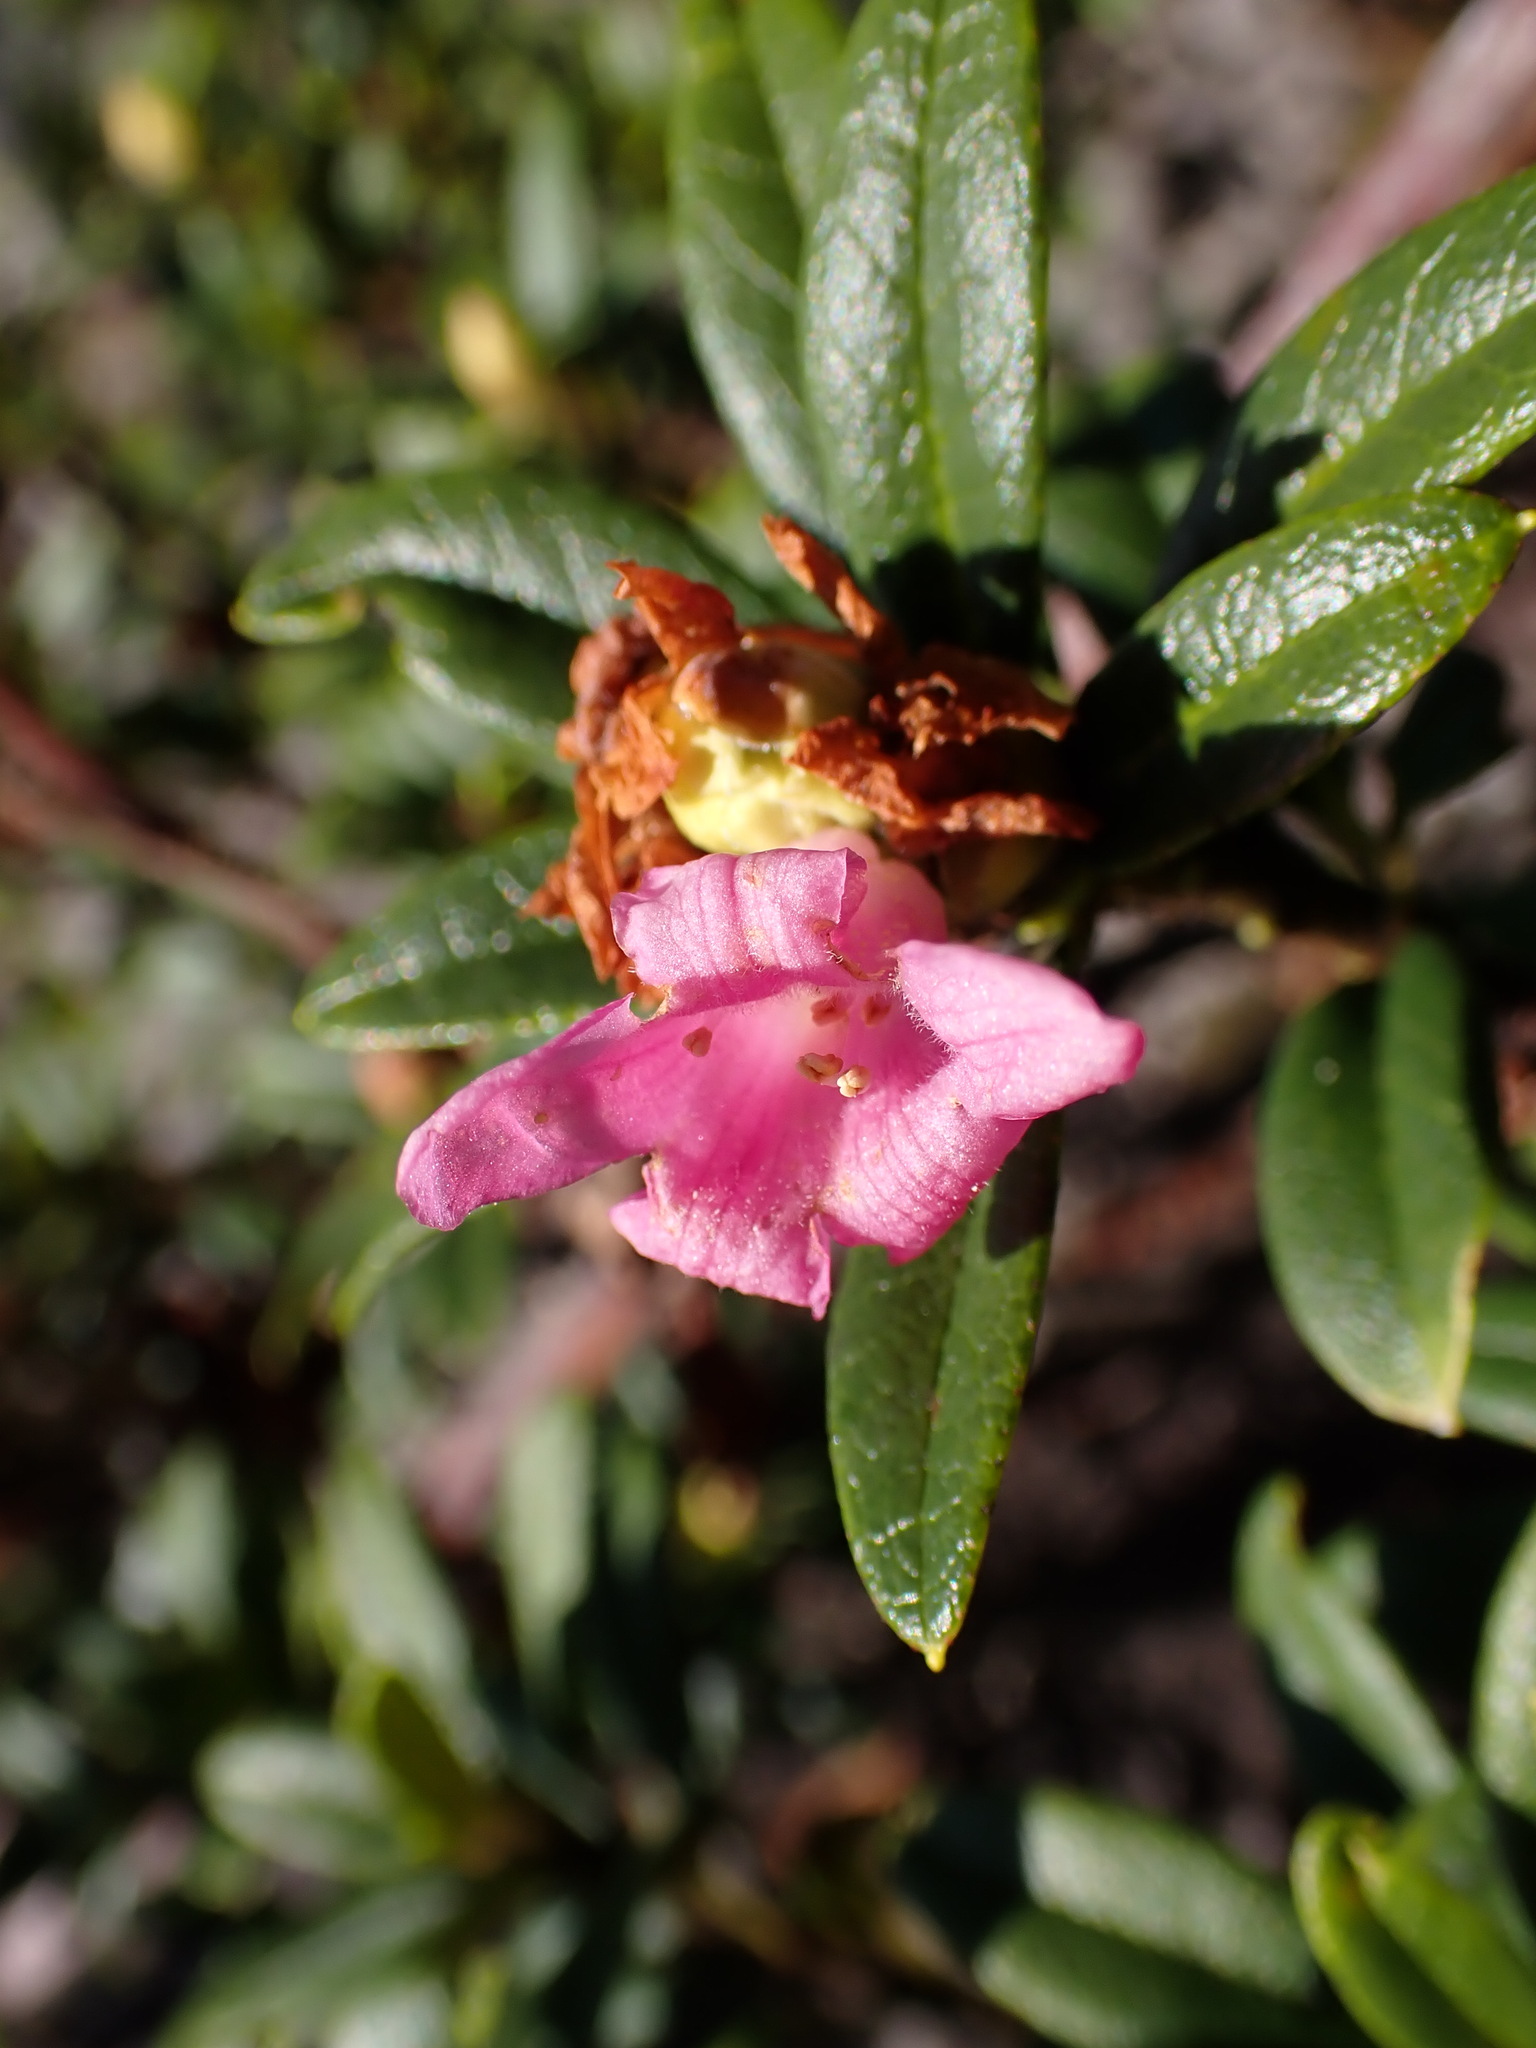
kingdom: Plantae
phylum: Tracheophyta
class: Magnoliopsida
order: Ericales
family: Ericaceae
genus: Rhododendron
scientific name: Rhododendron ferrugineum
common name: Alpenrose
